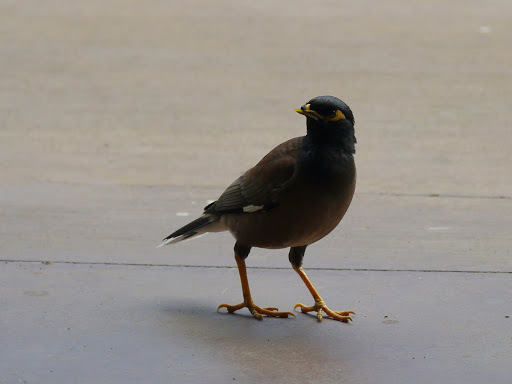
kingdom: Animalia
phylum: Chordata
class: Aves
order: Passeriformes
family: Sturnidae
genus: Acridotheres
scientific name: Acridotheres tristis
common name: Common myna
